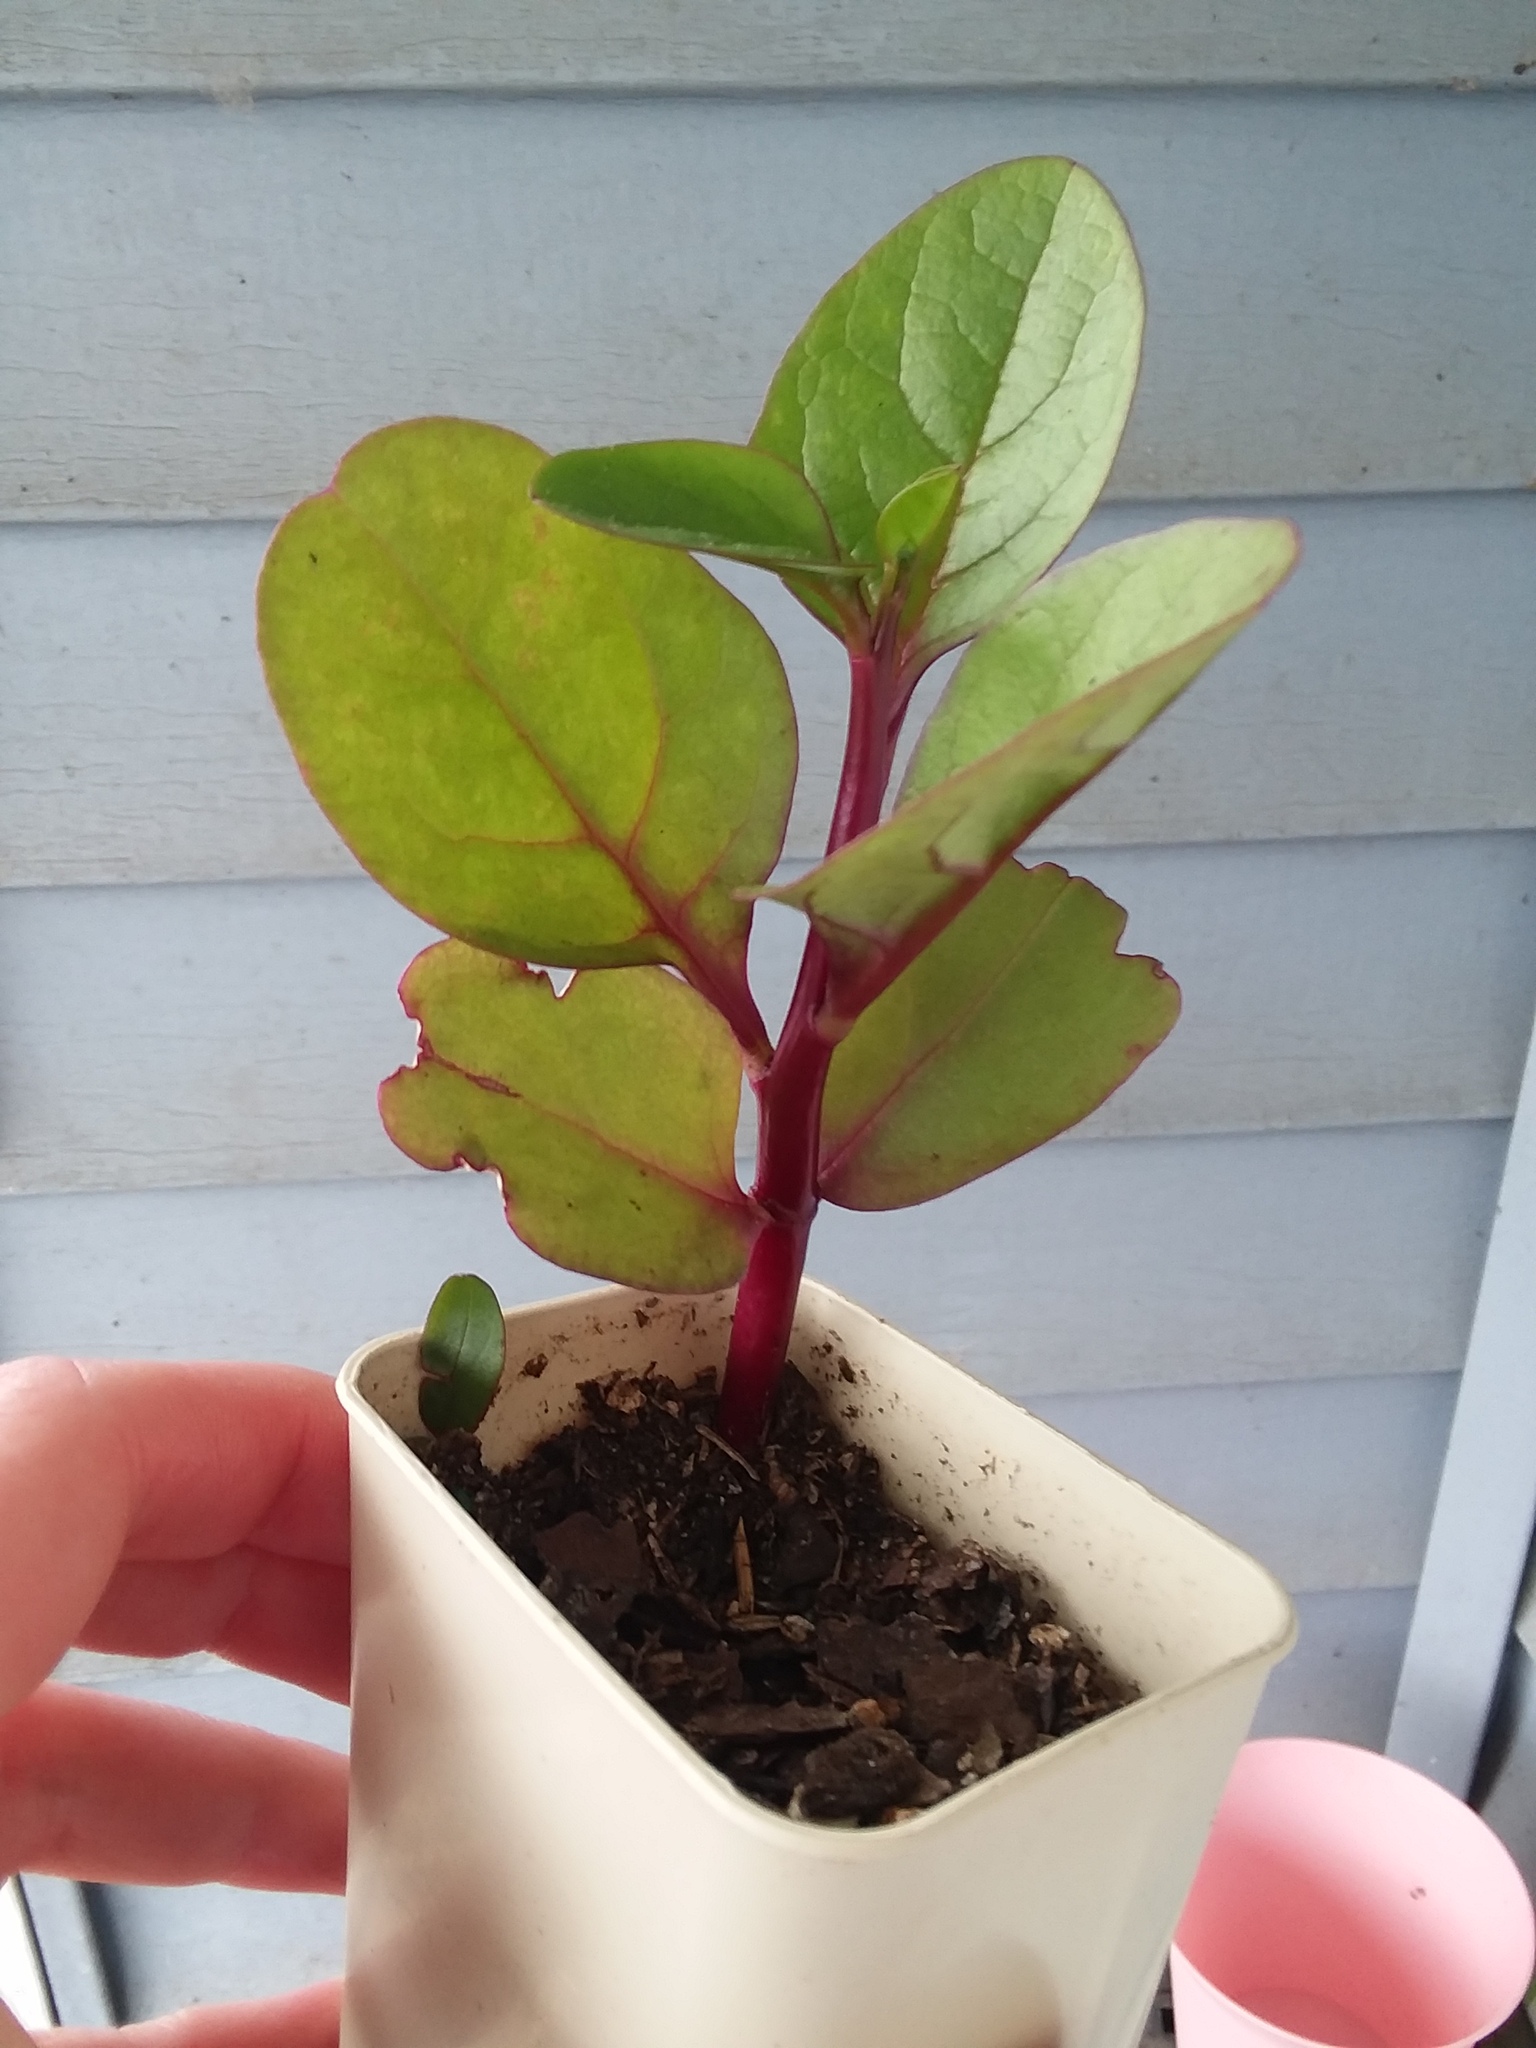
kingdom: Plantae
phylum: Tracheophyta
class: Magnoliopsida
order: Caryophyllales
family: Basellaceae
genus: Basella
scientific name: Basella alba
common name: Indian spinach
